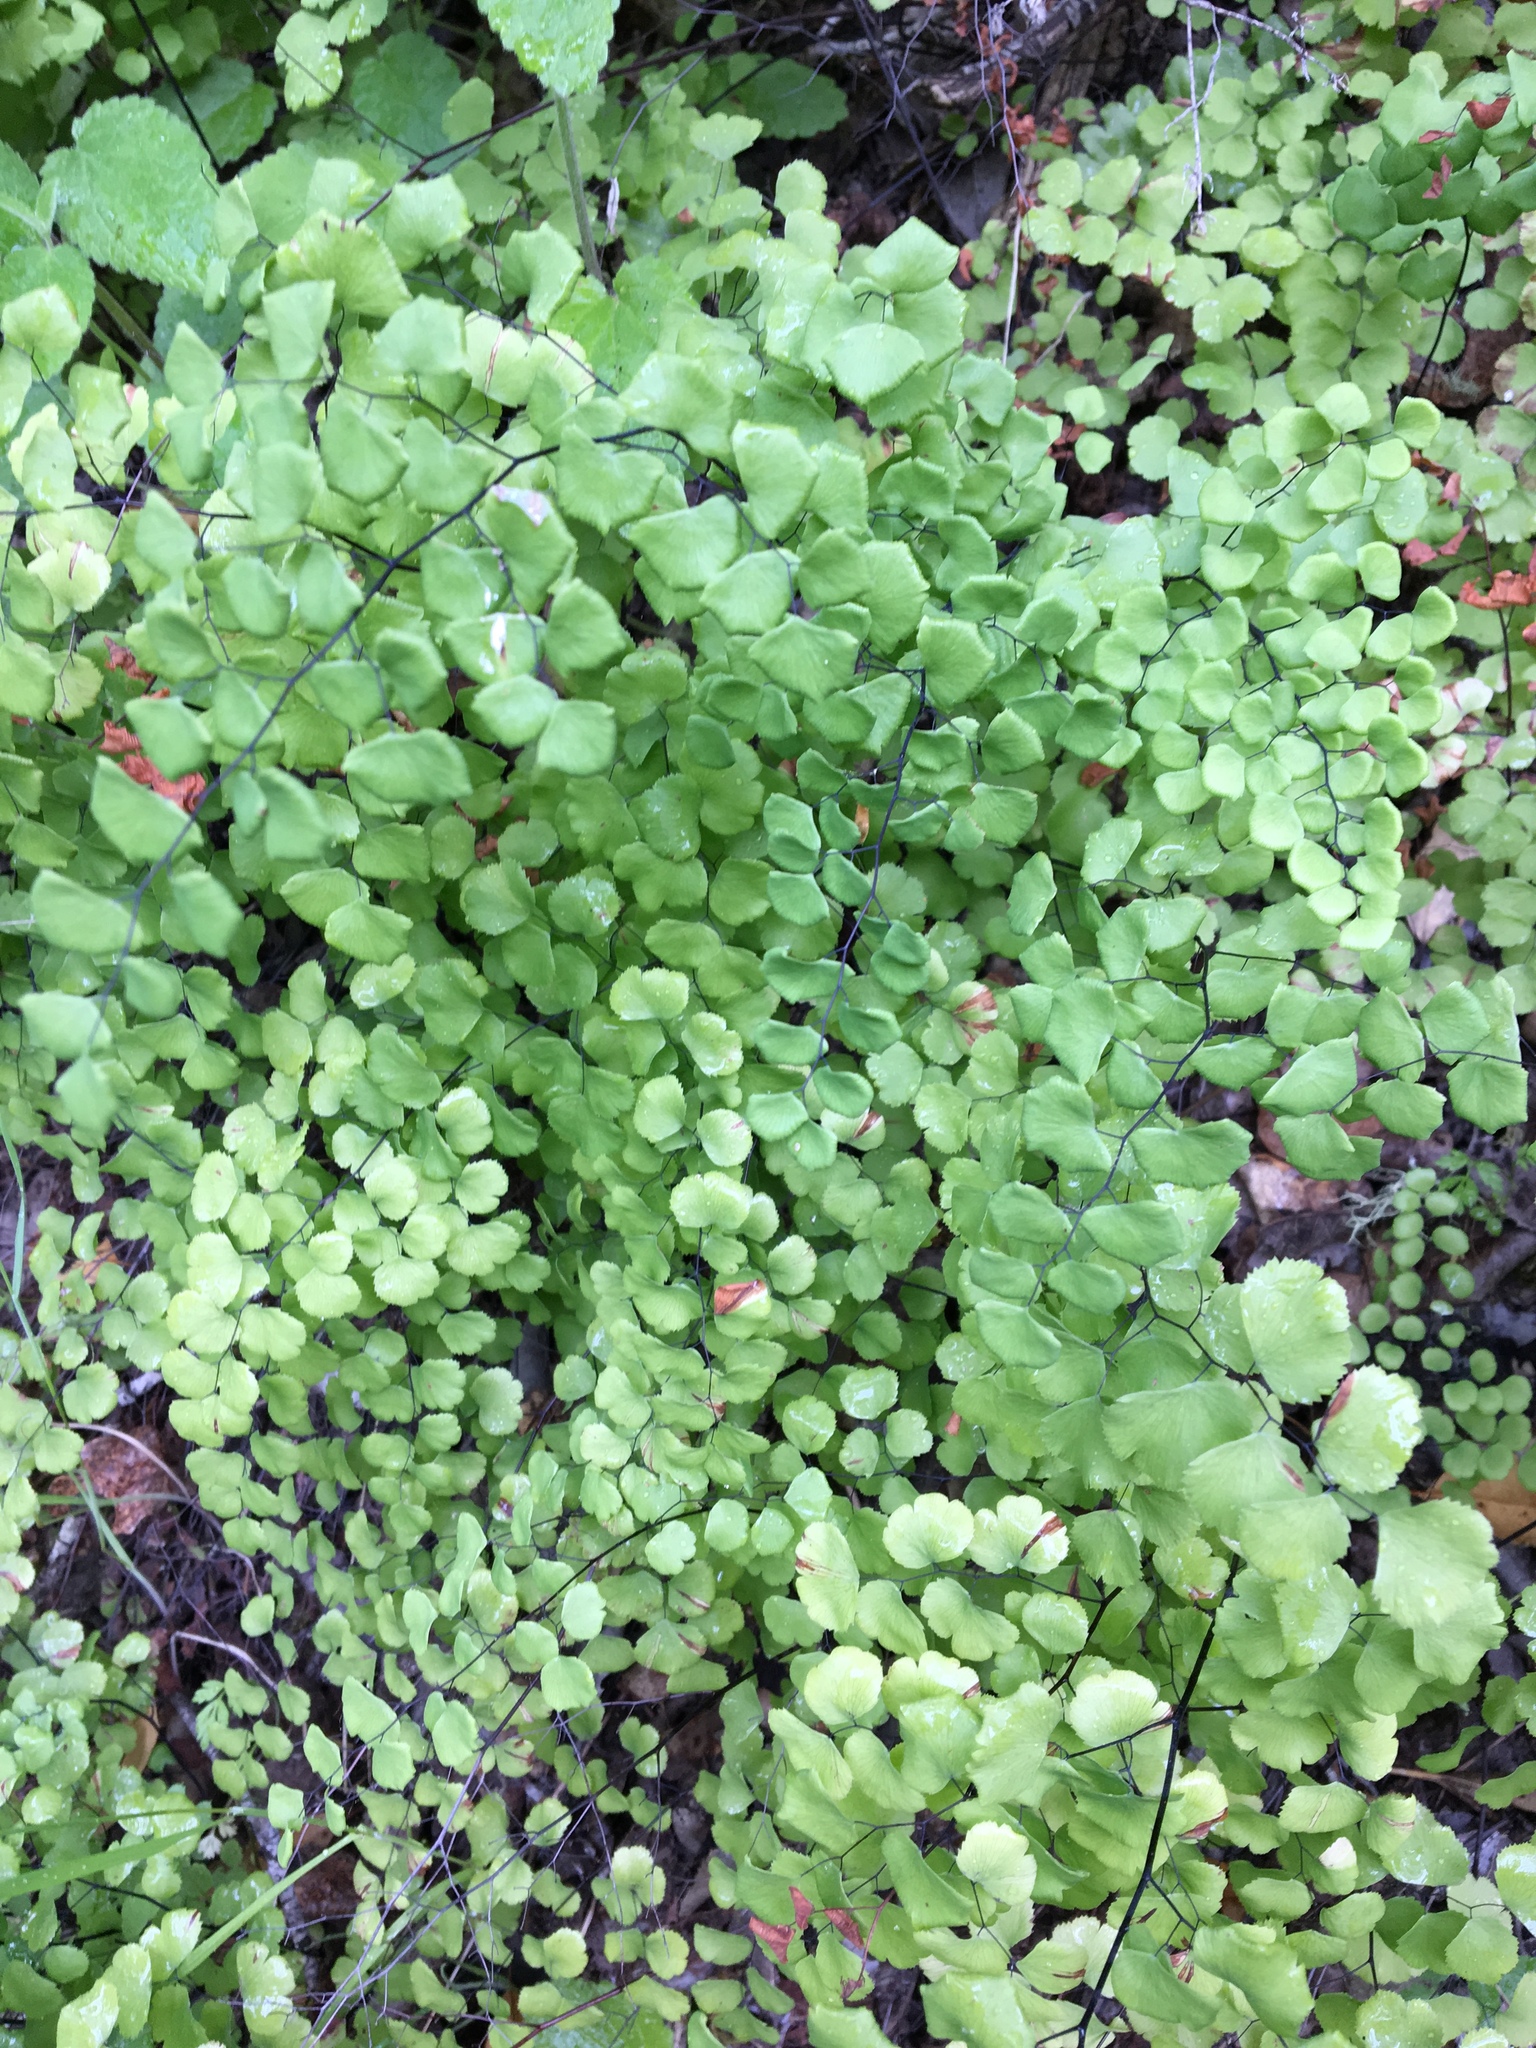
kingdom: Plantae
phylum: Tracheophyta
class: Polypodiopsida
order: Polypodiales
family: Pteridaceae
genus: Adiantum
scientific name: Adiantum jordanii
